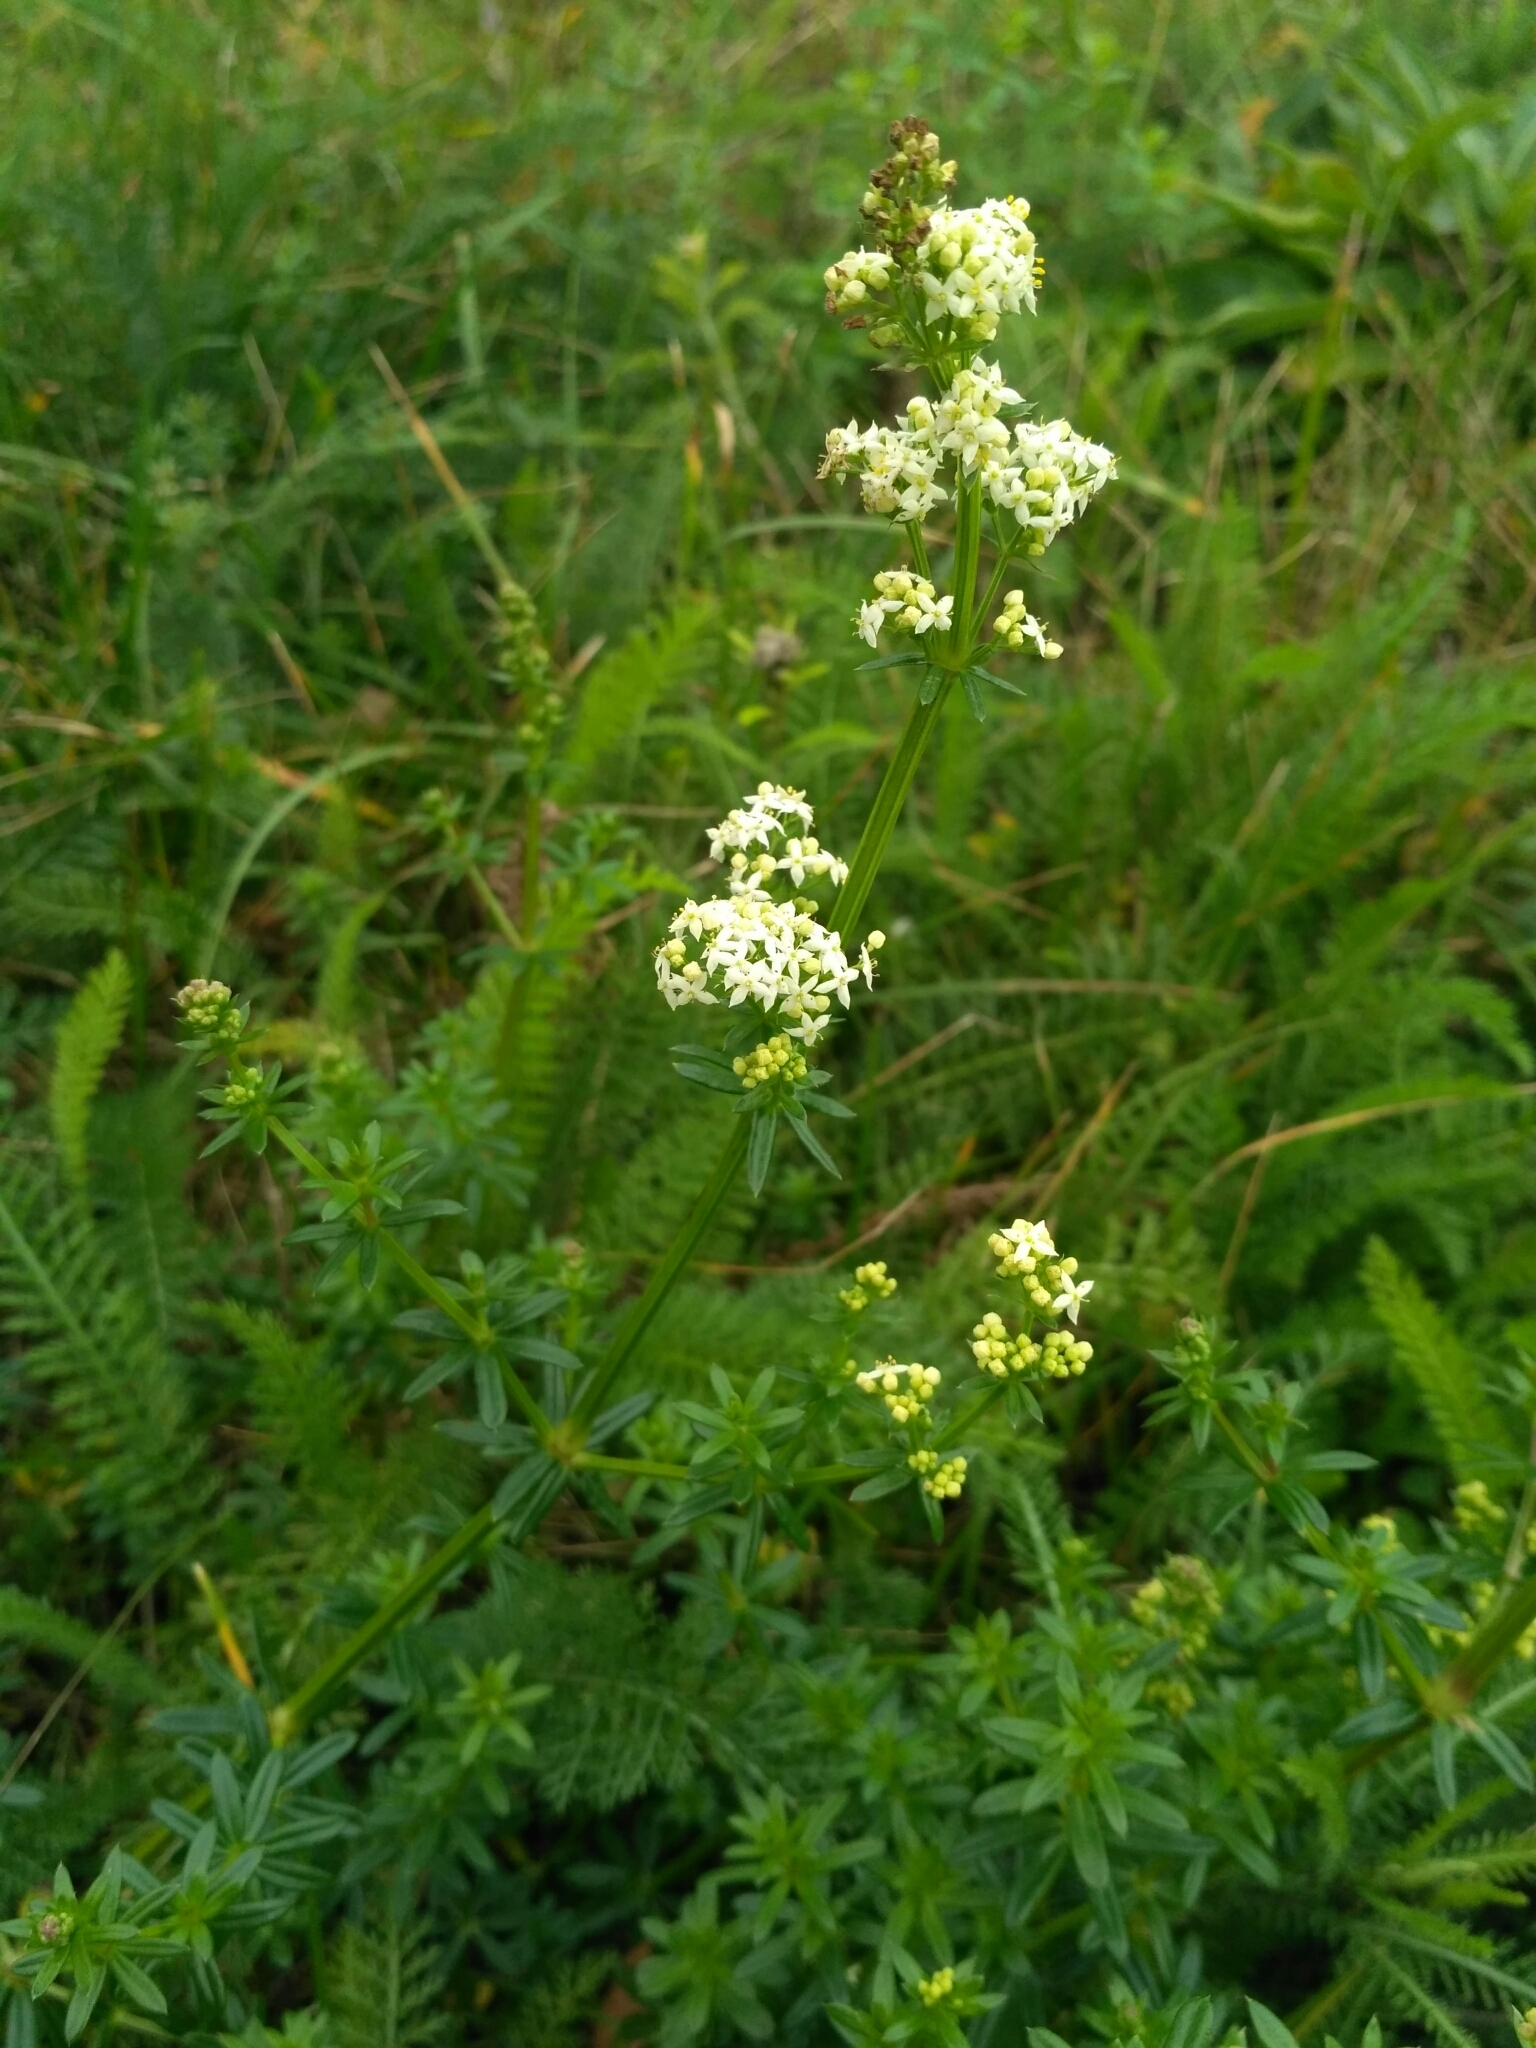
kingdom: Plantae
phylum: Tracheophyta
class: Magnoliopsida
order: Gentianales
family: Rubiaceae
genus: Galium
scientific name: Galium mollugo
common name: Hedge bedstraw
